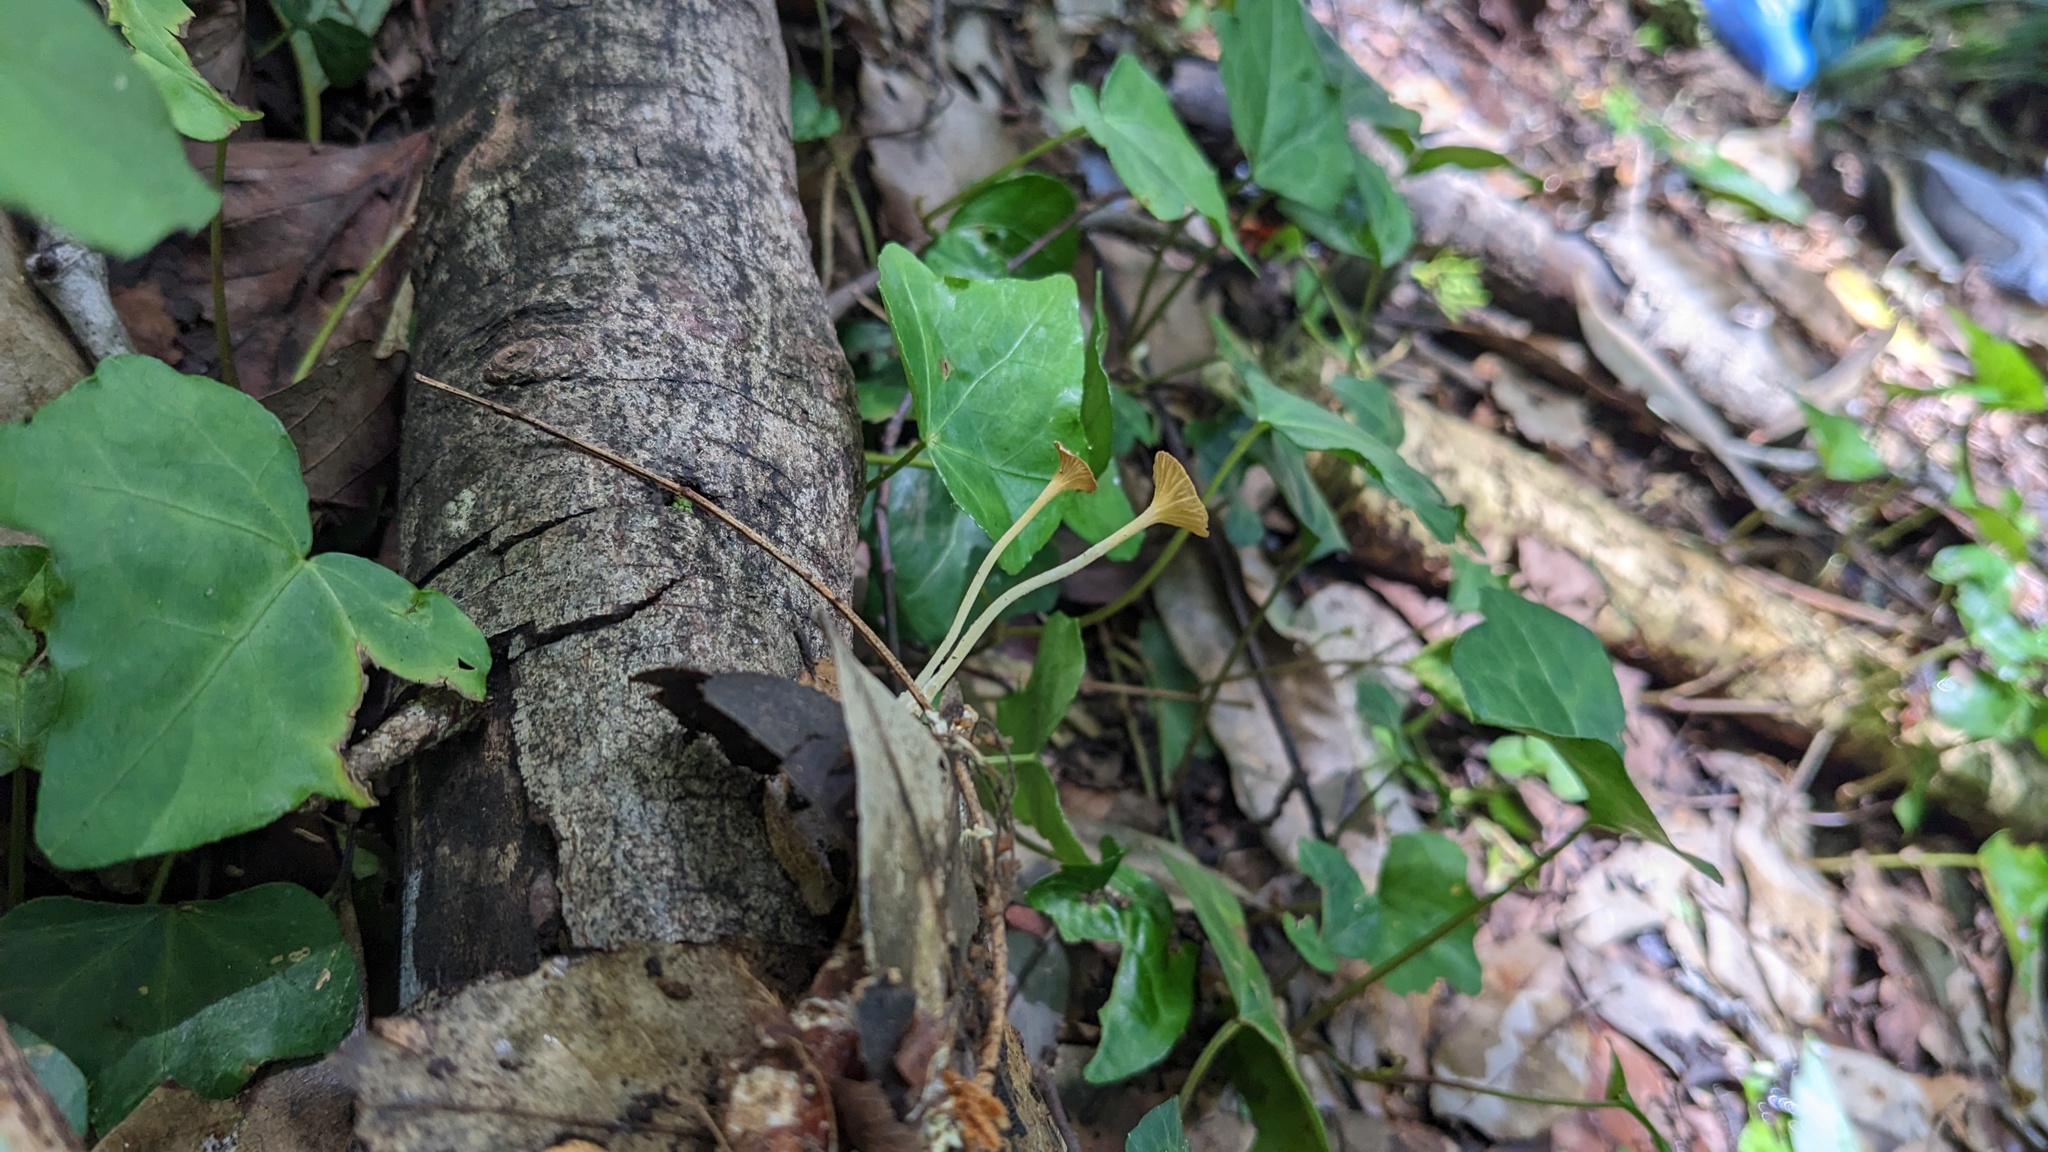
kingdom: Fungi
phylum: Basidiomycota
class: Agaricomycetes
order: Agaricales
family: Marasmiaceae
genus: Gerronema
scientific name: Gerronema nemorale
